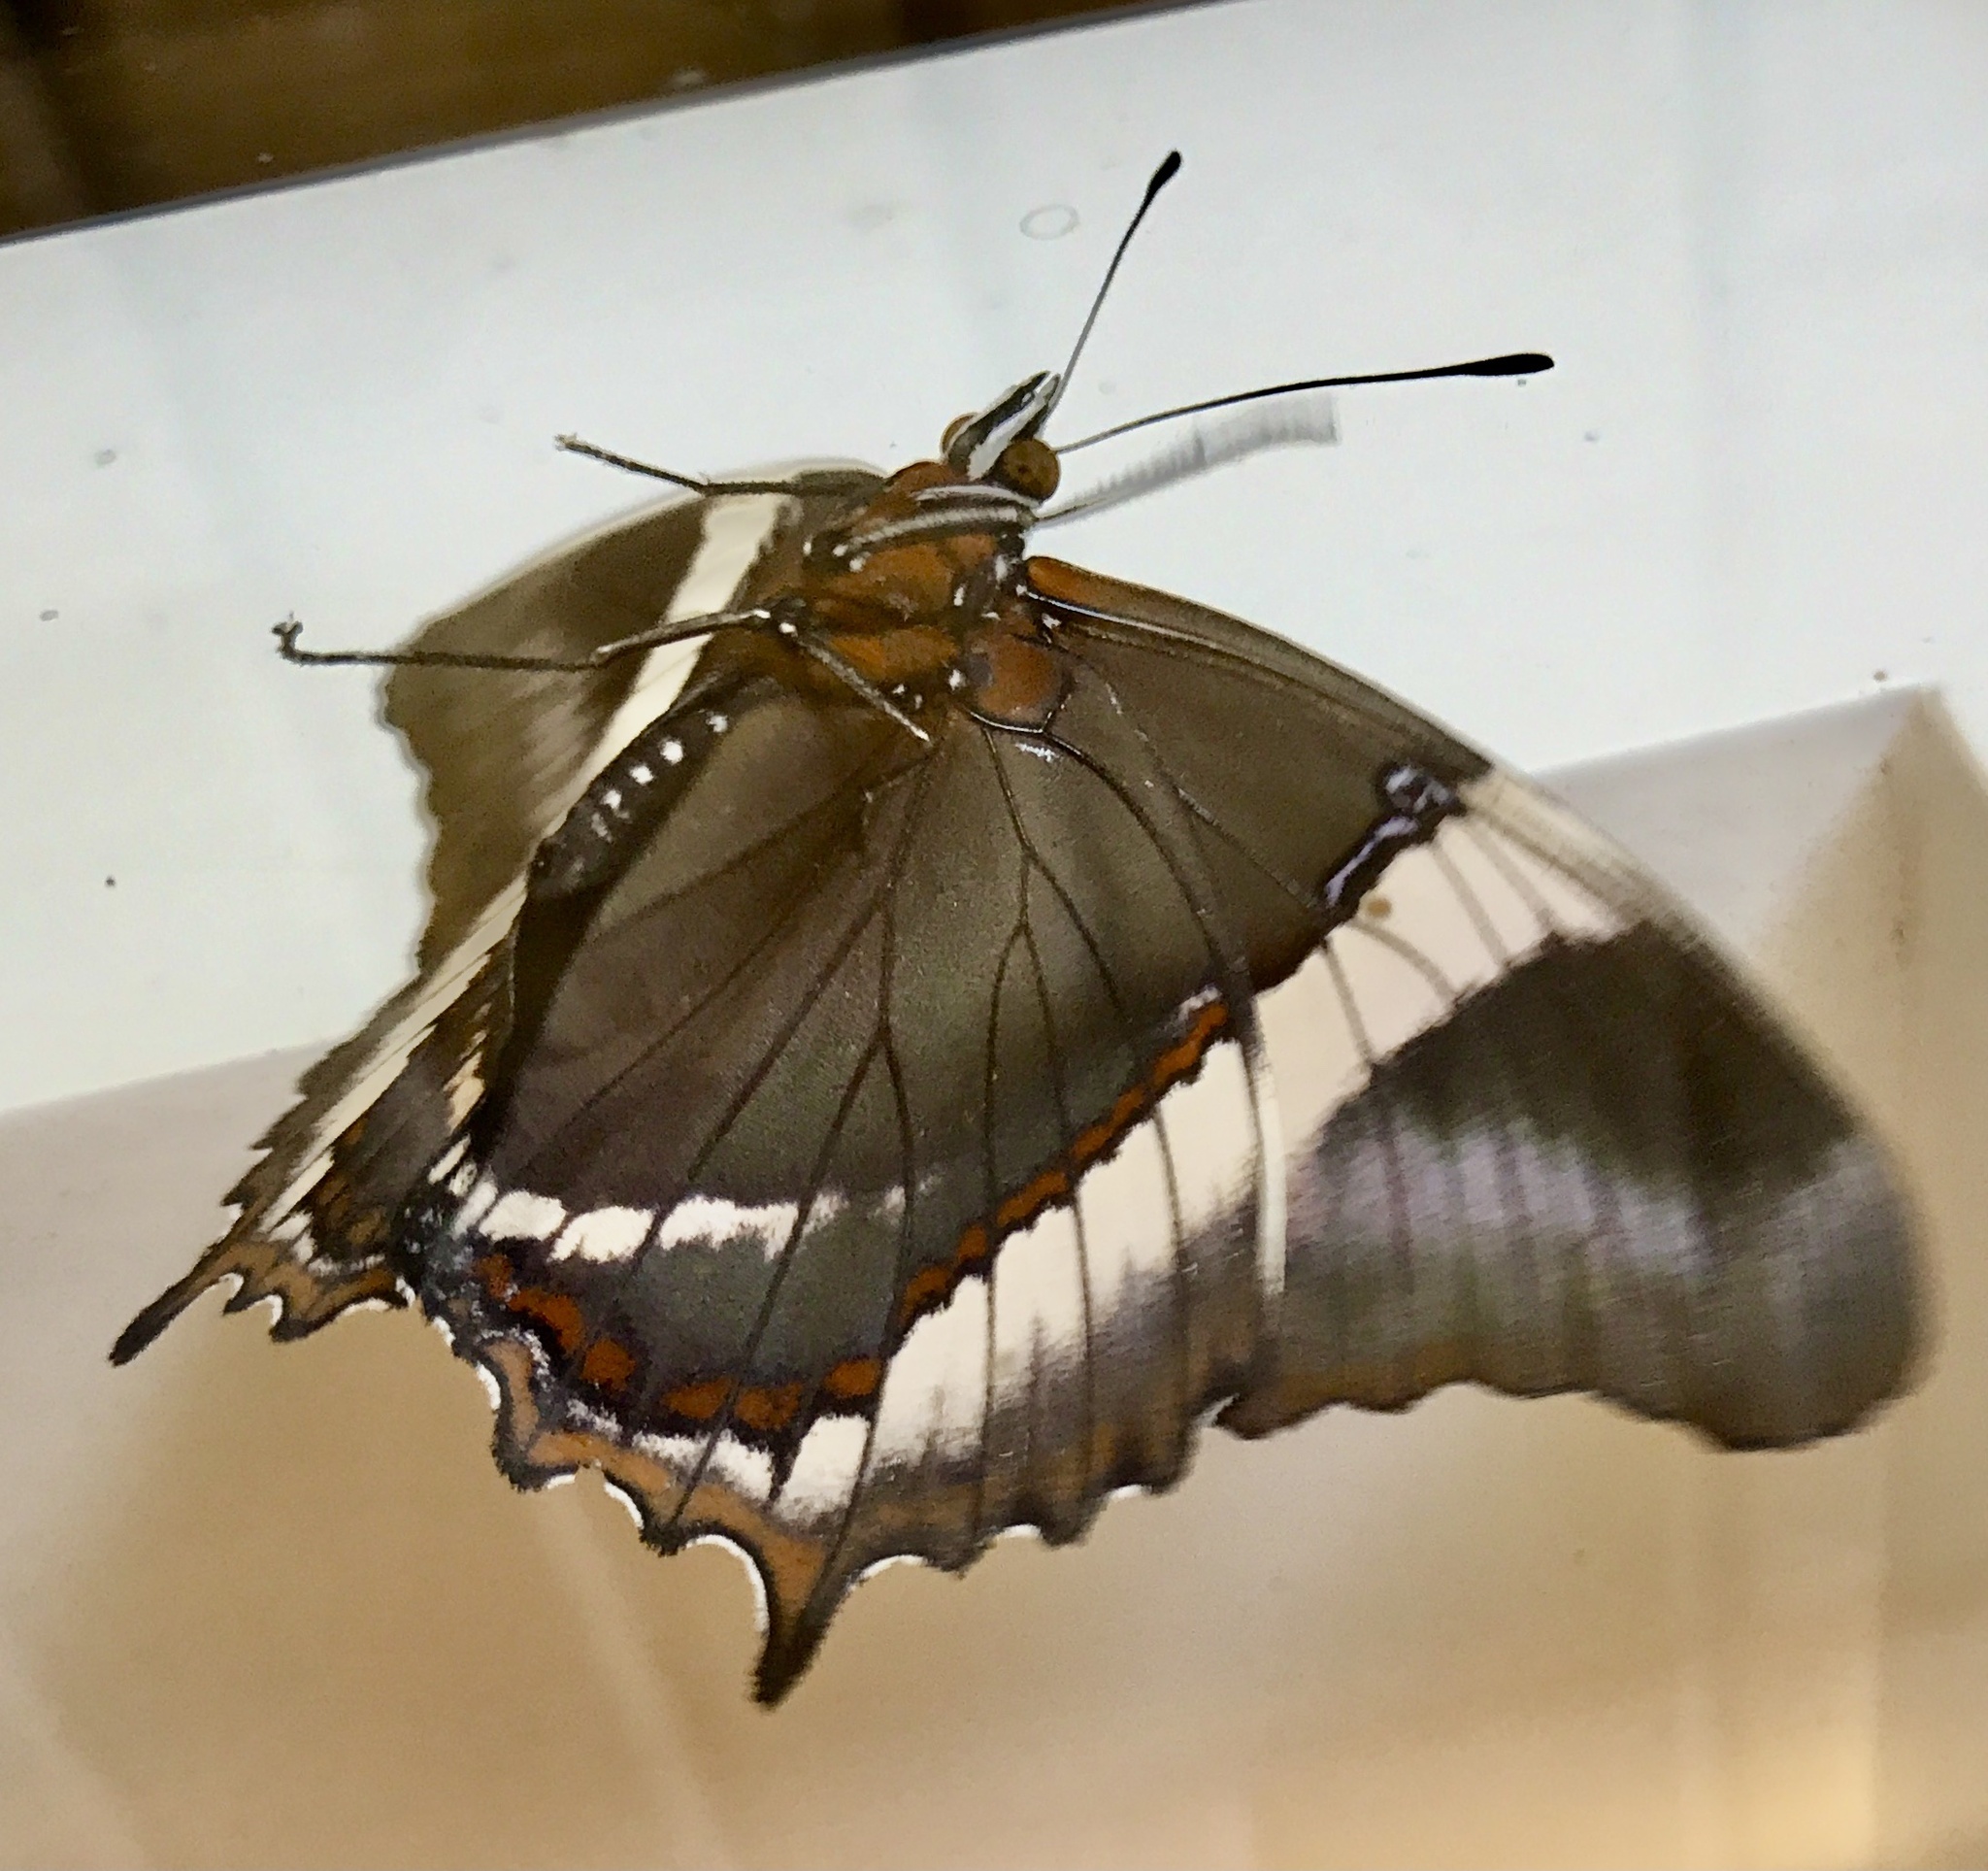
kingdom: Animalia
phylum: Arthropoda
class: Insecta
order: Lepidoptera
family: Nymphalidae
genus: Siproeta
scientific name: Siproeta epaphus
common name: Rusty-tipped page
